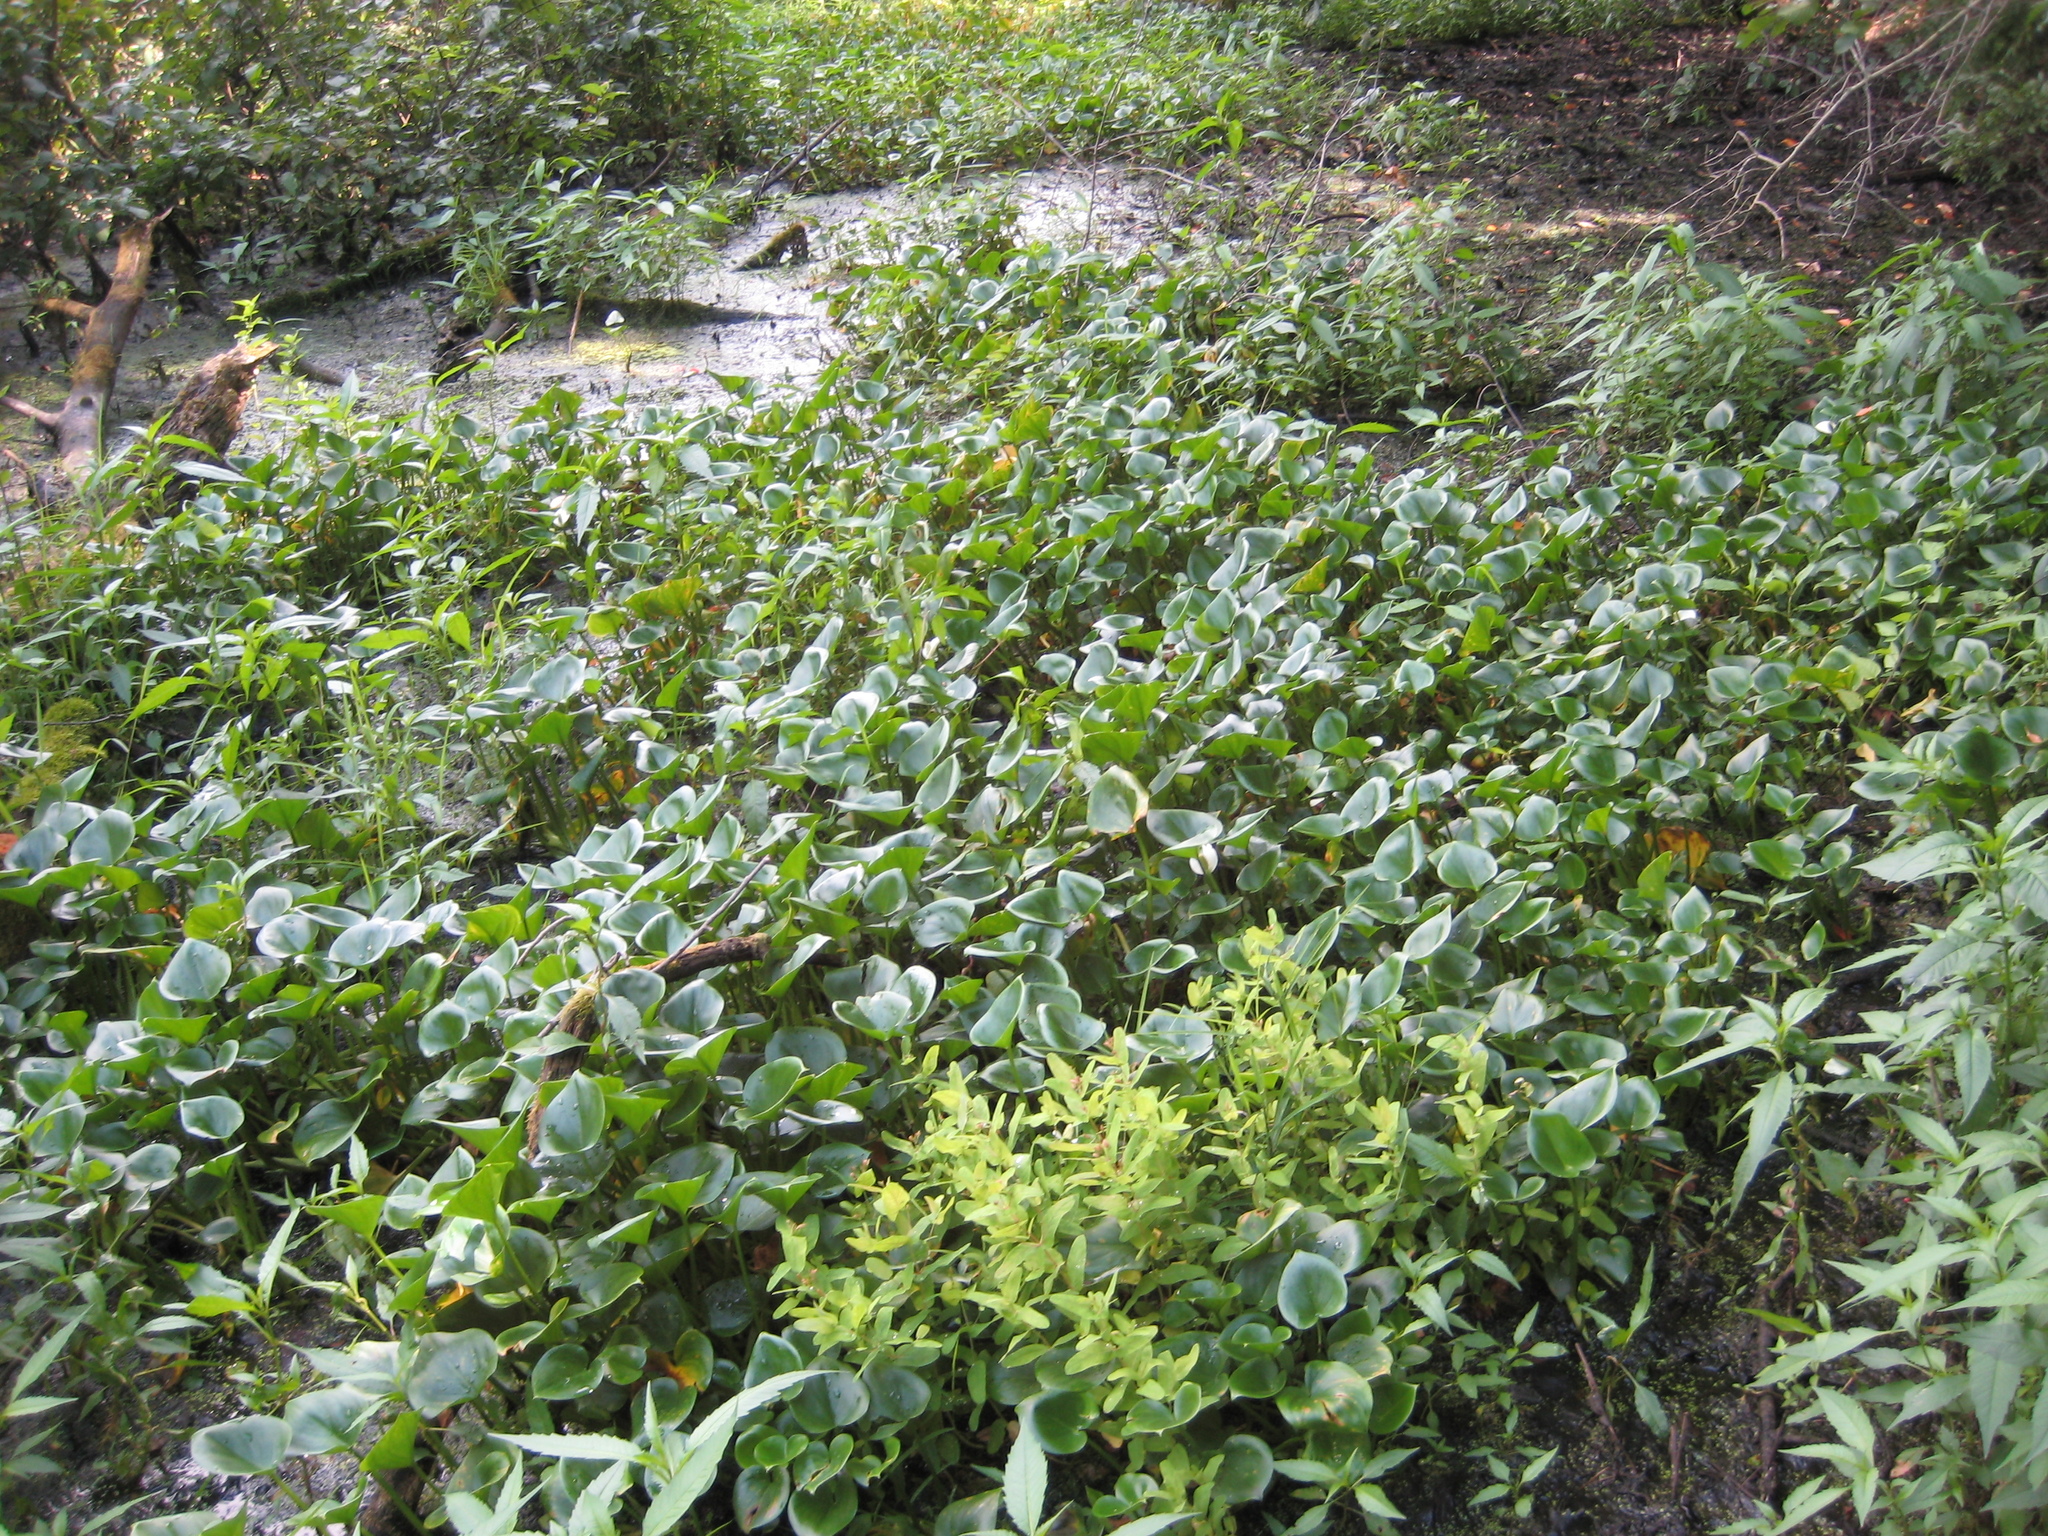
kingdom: Plantae
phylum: Tracheophyta
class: Liliopsida
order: Alismatales
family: Araceae
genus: Calla
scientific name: Calla palustris
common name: Bog arum
